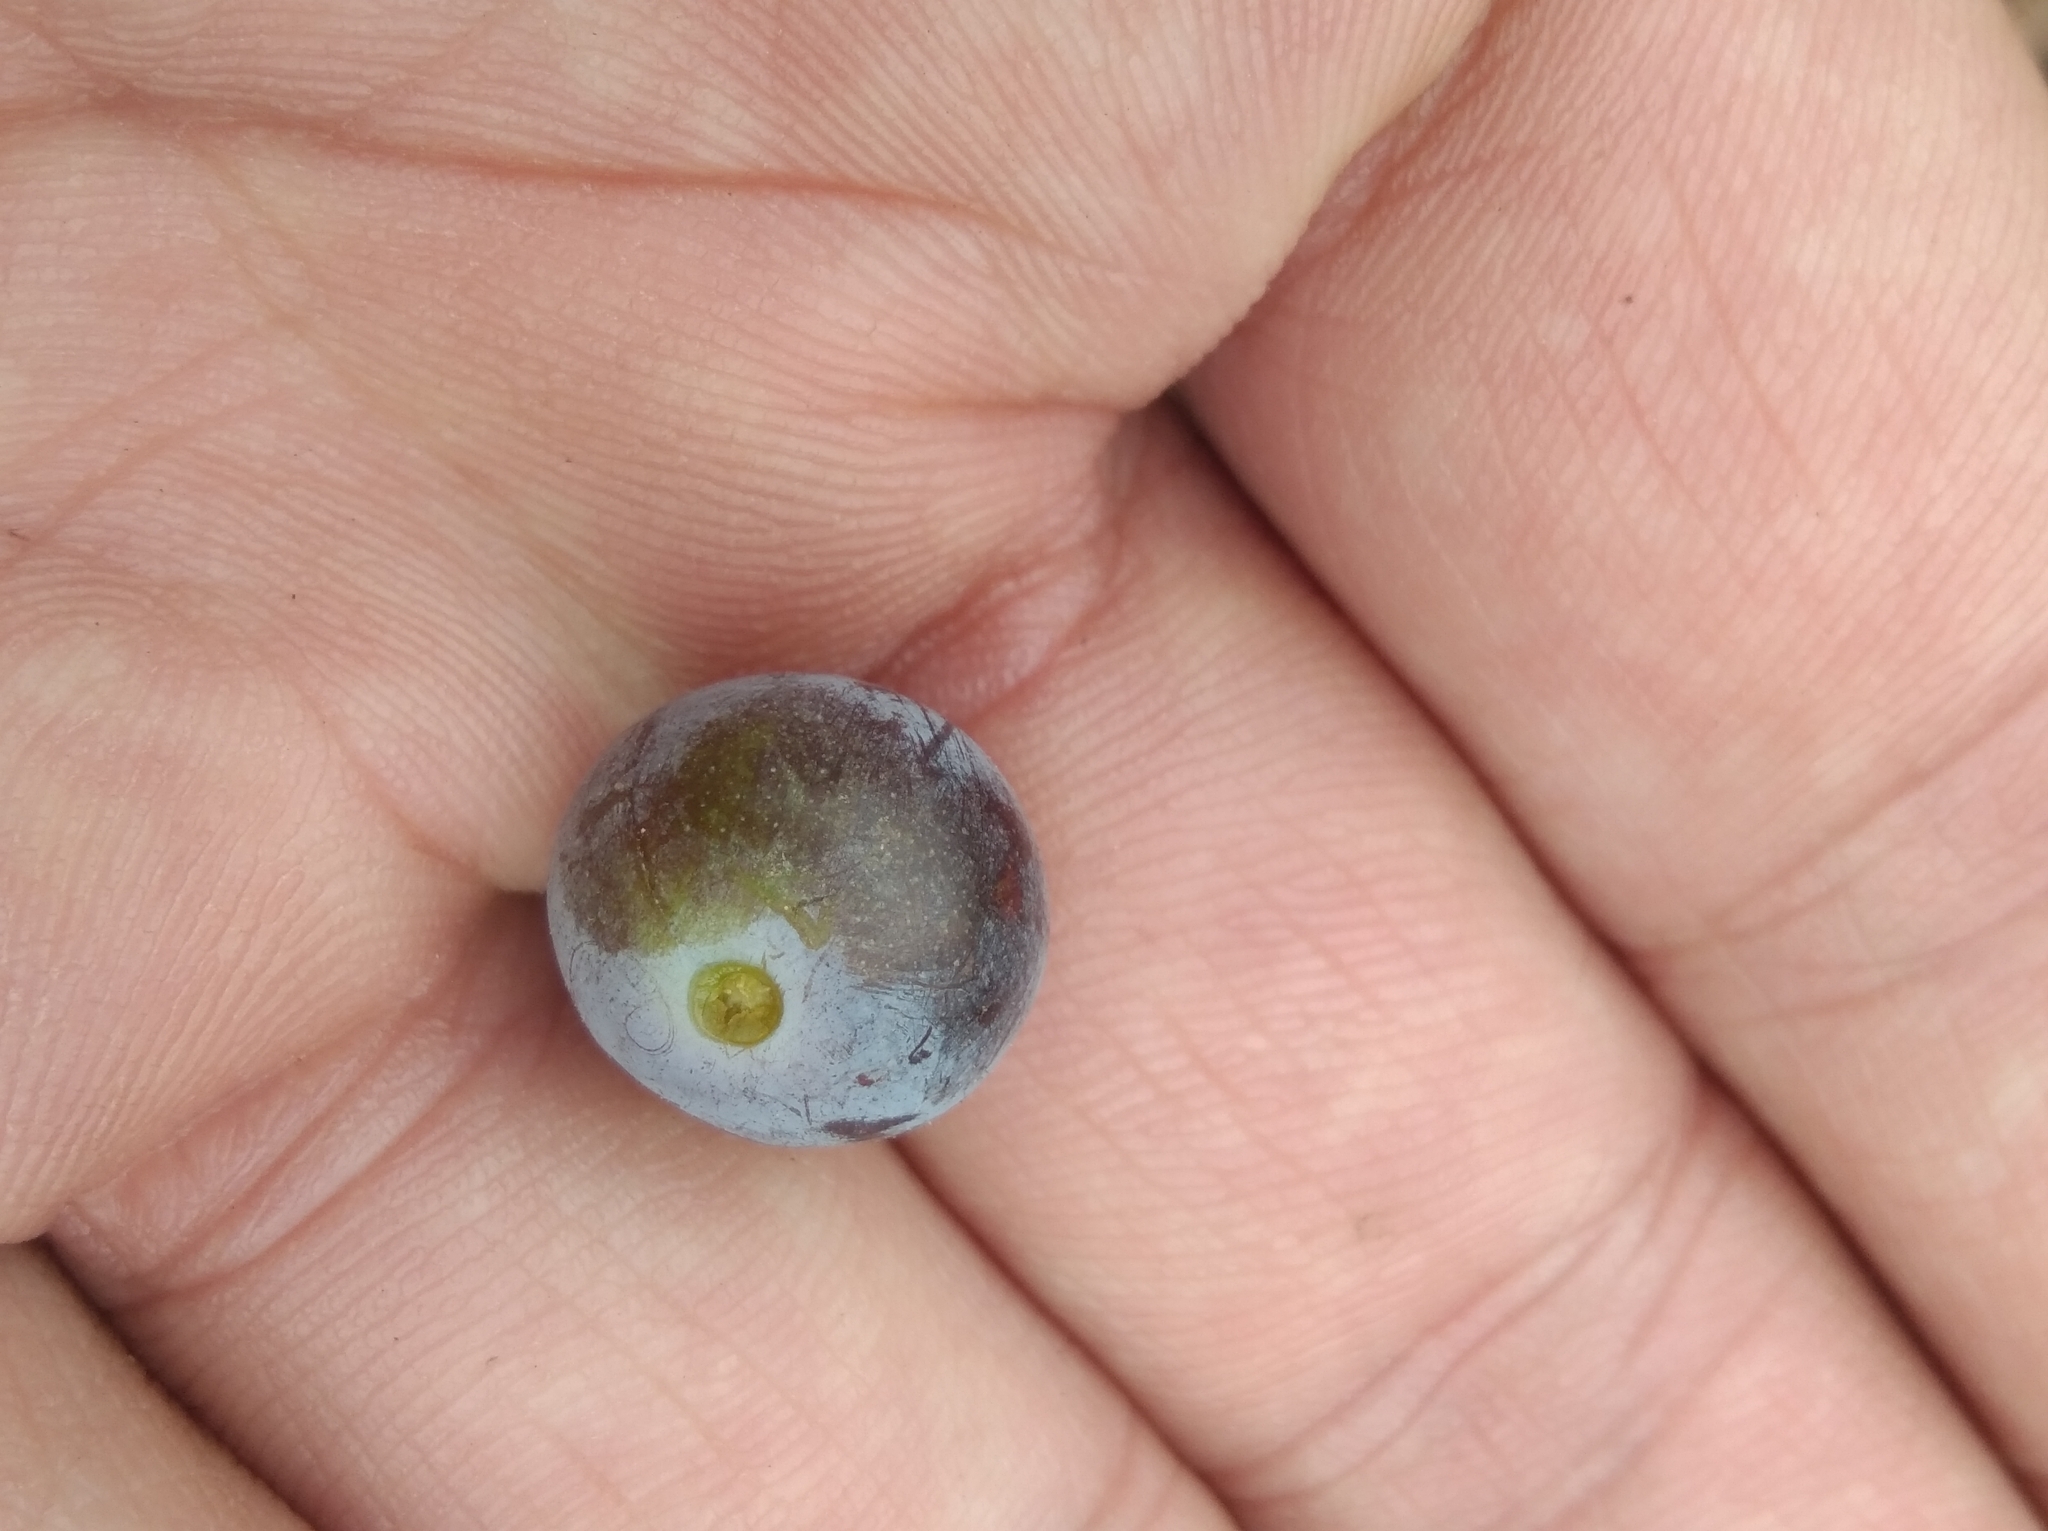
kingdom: Plantae
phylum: Tracheophyta
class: Magnoliopsida
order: Rosales
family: Rosaceae
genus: Prunus
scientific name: Prunus spinosa
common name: Blackthorn
